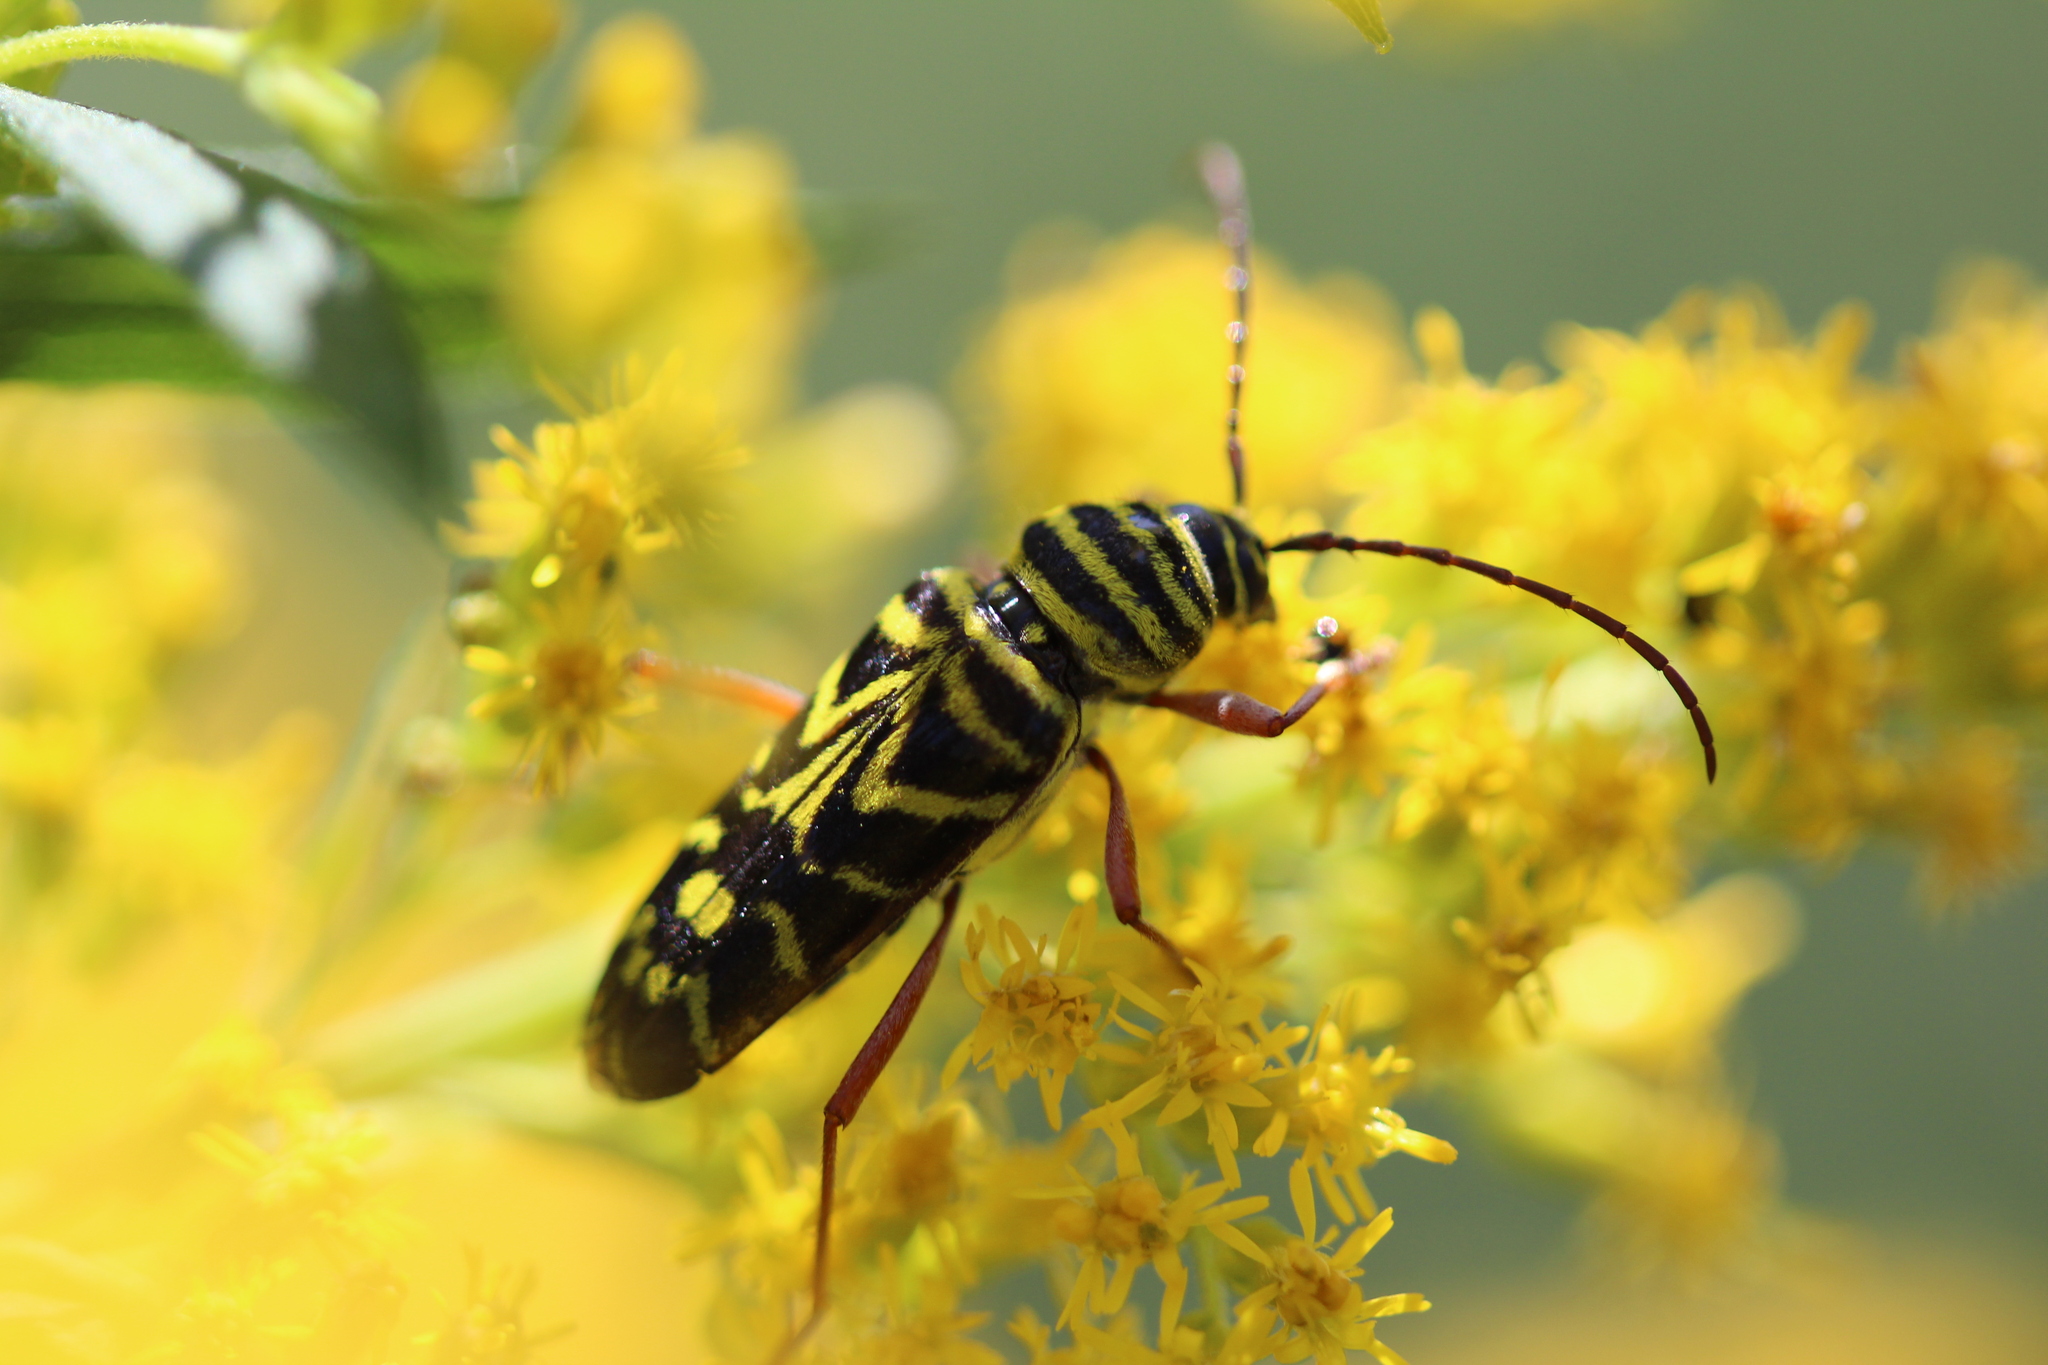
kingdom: Animalia
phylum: Arthropoda
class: Insecta
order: Coleoptera
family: Cerambycidae
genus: Megacyllene
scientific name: Megacyllene robiniae
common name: Locust borer
